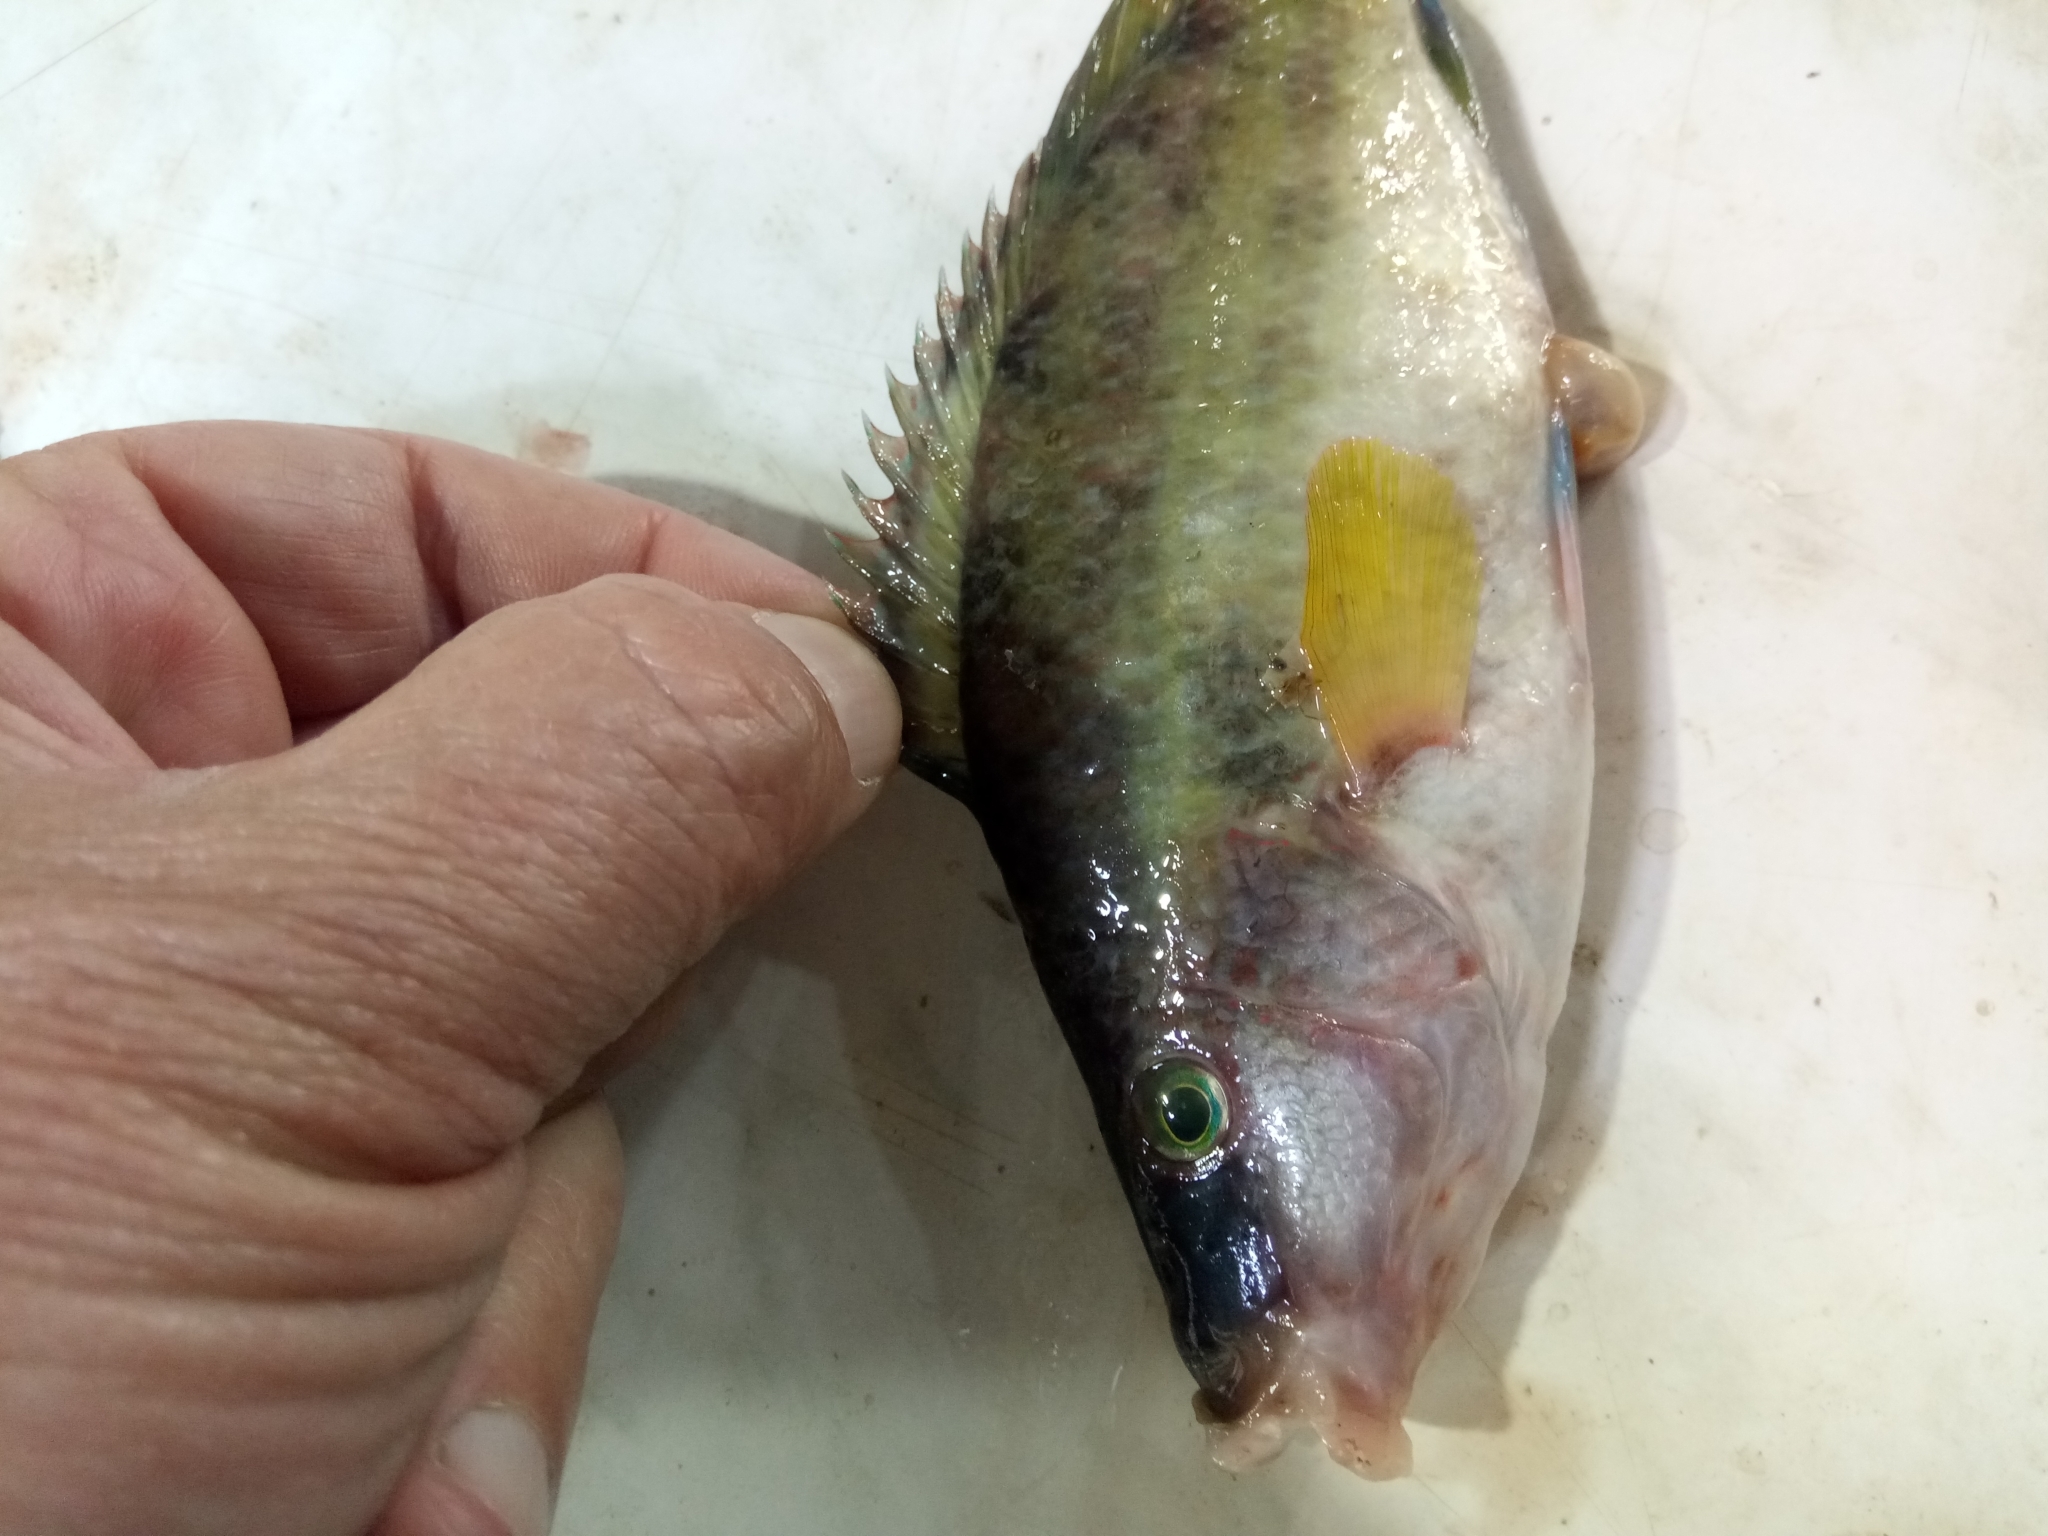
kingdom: Animalia
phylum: Chordata
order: Perciformes
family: Labridae
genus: Symphodus
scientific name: Symphodus tinca
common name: Peacock wrasse
